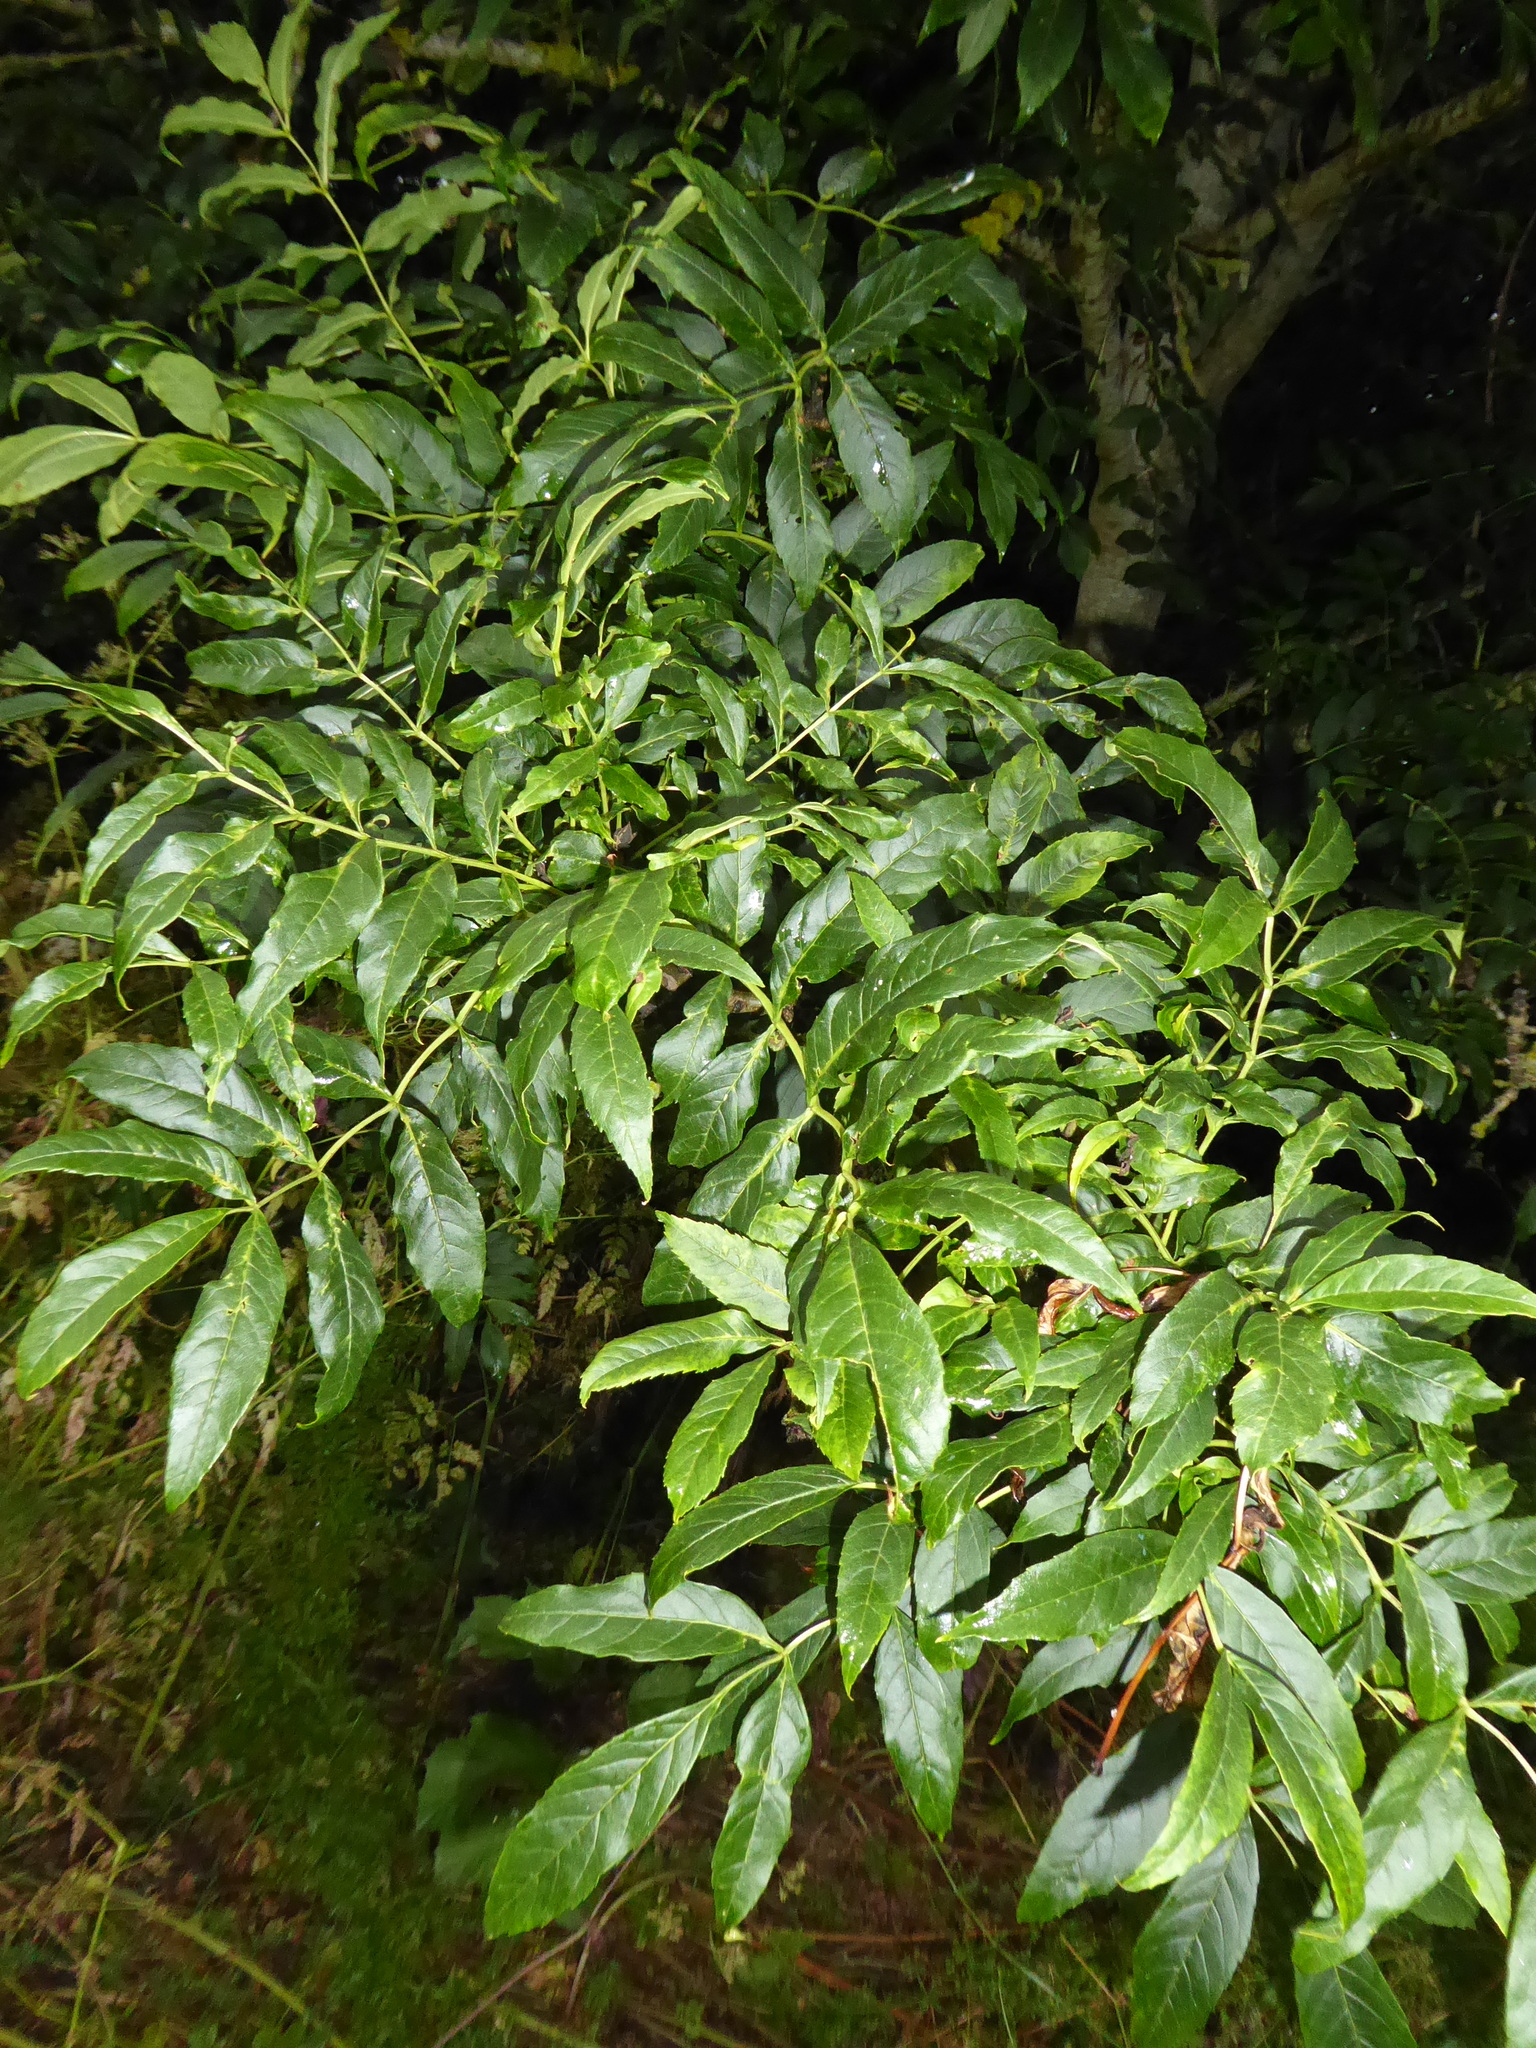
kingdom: Plantae
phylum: Tracheophyta
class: Magnoliopsida
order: Lamiales
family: Oleaceae
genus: Fraxinus
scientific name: Fraxinus excelsior
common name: European ash
